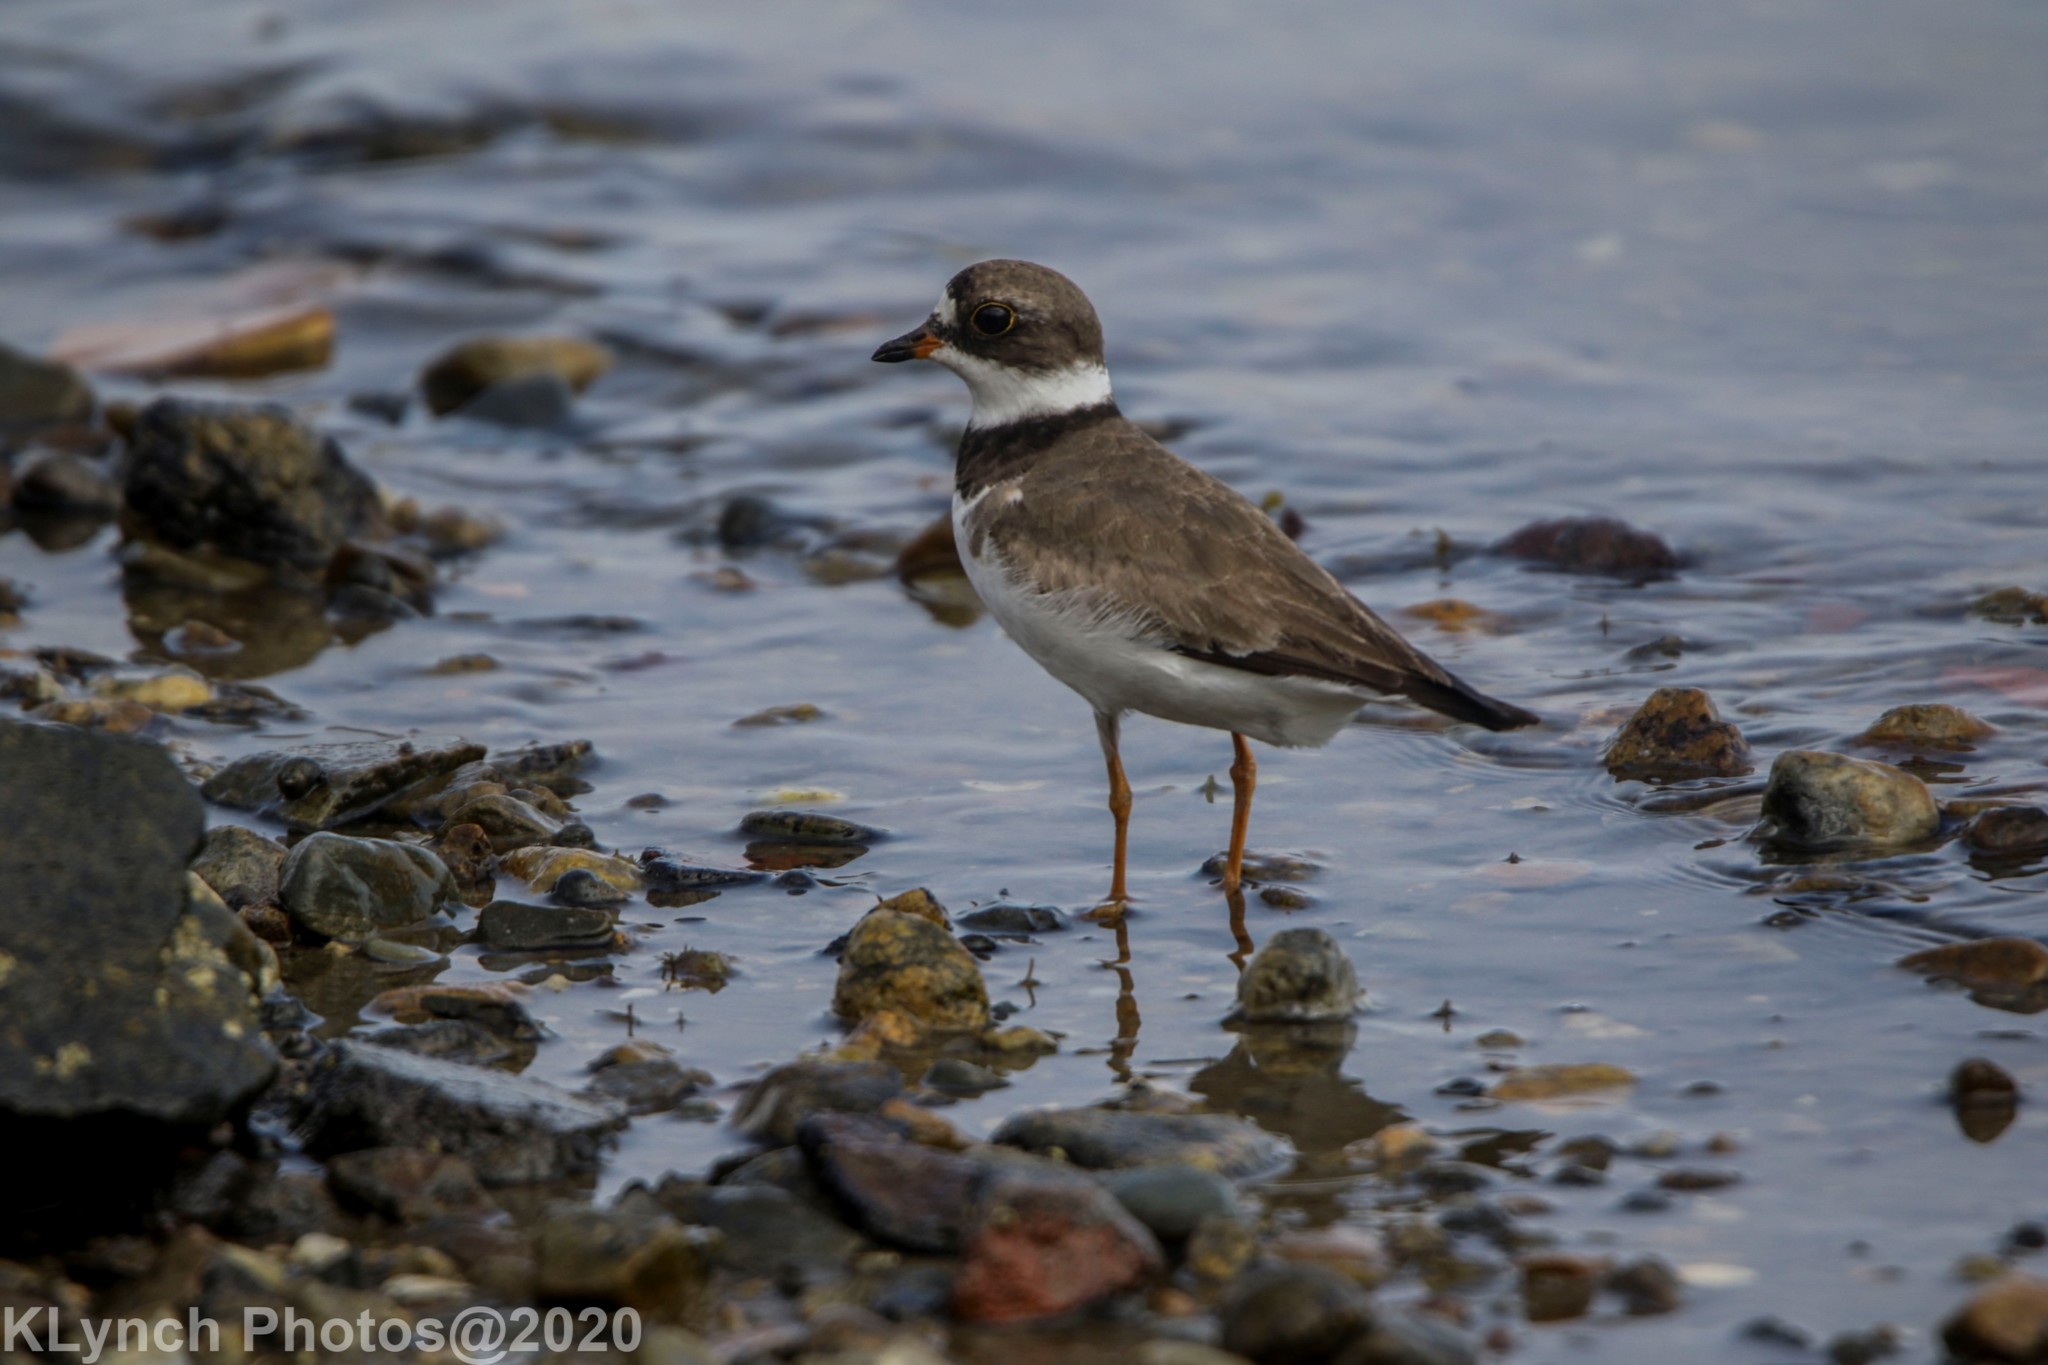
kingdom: Animalia
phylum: Chordata
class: Aves
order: Charadriiformes
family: Charadriidae
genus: Charadrius
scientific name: Charadrius semipalmatus
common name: Semipalmated plover
